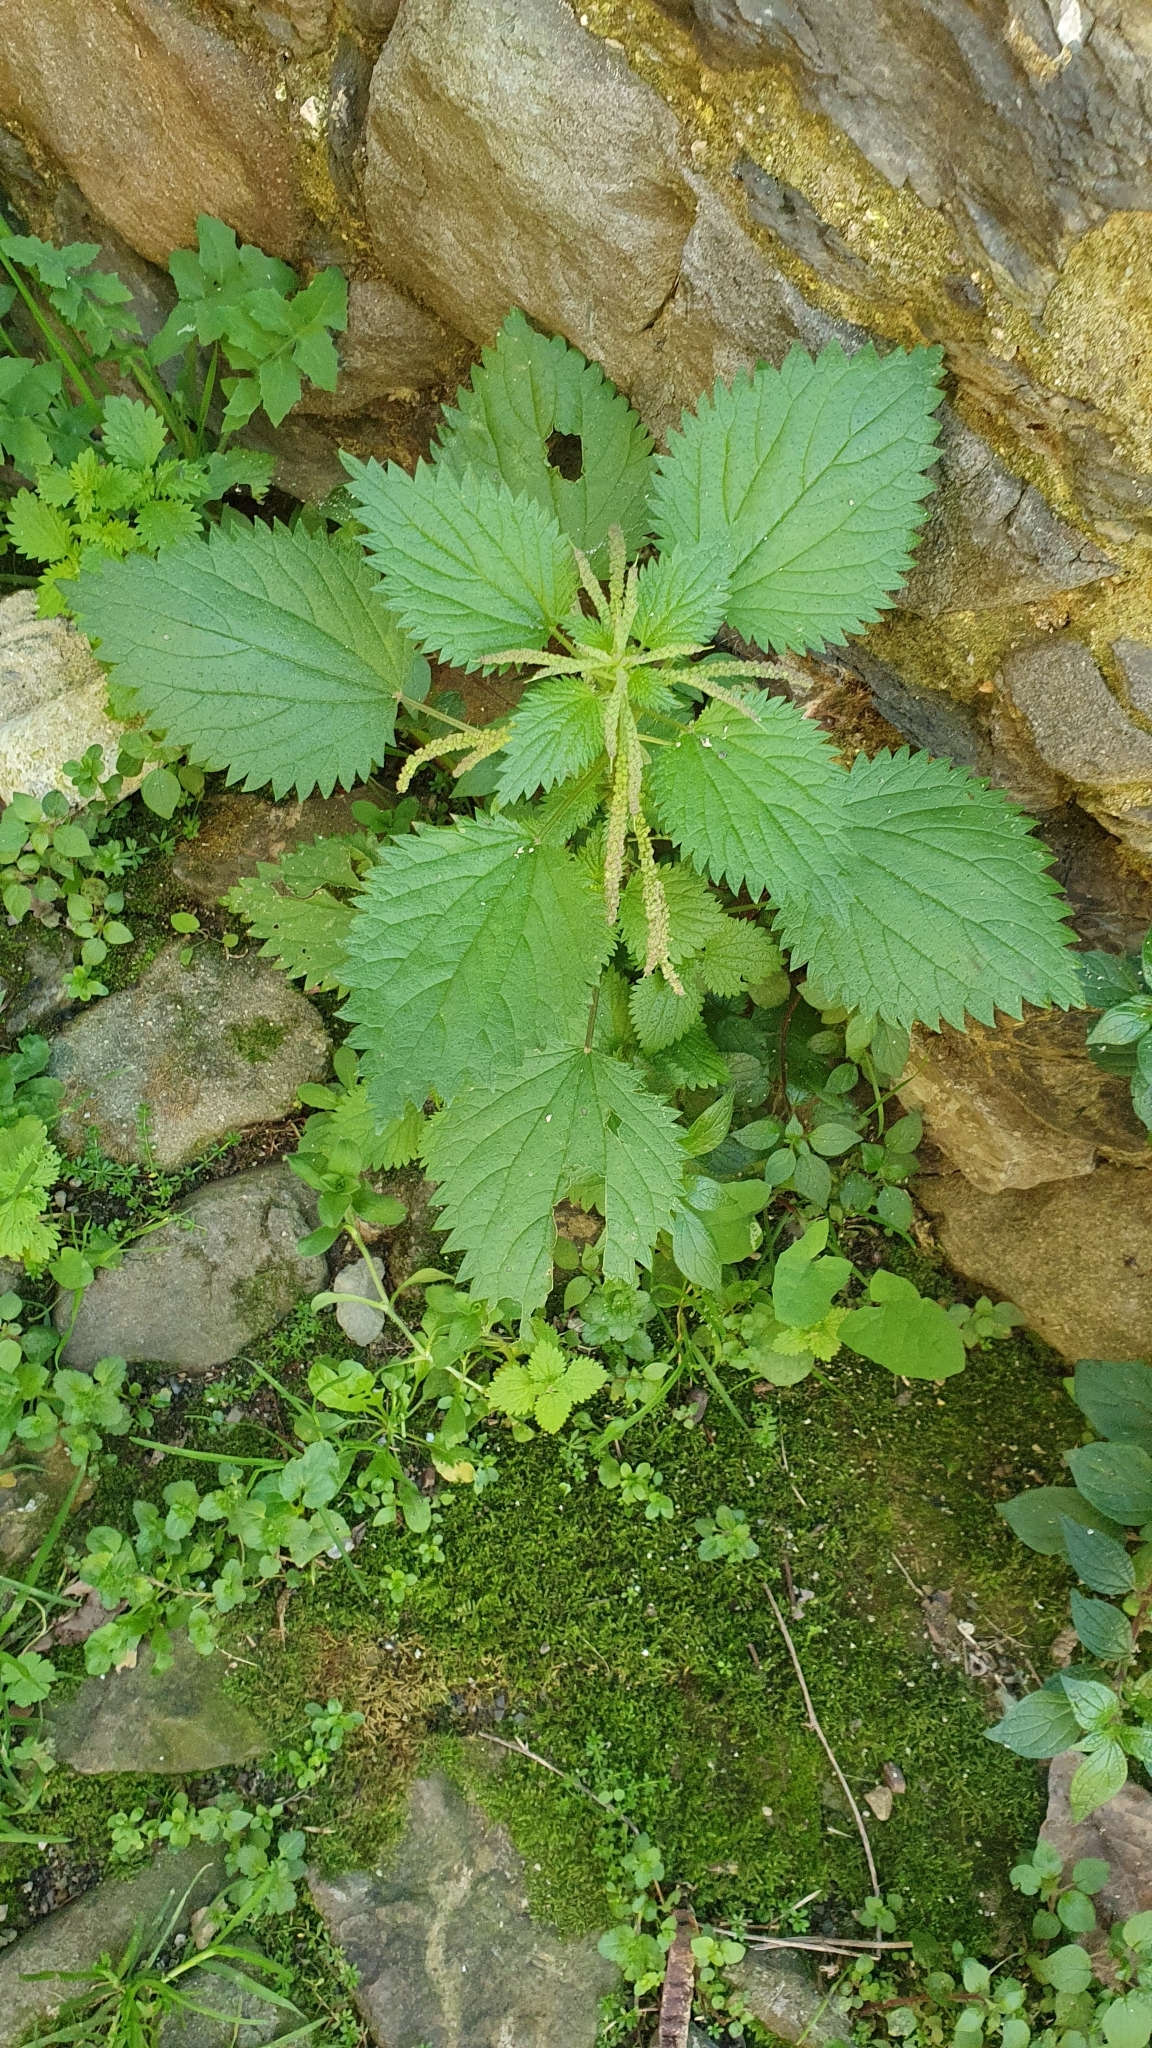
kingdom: Plantae
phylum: Tracheophyta
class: Magnoliopsida
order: Rosales
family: Urticaceae
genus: Urtica
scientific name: Urtica dioica
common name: Common nettle
